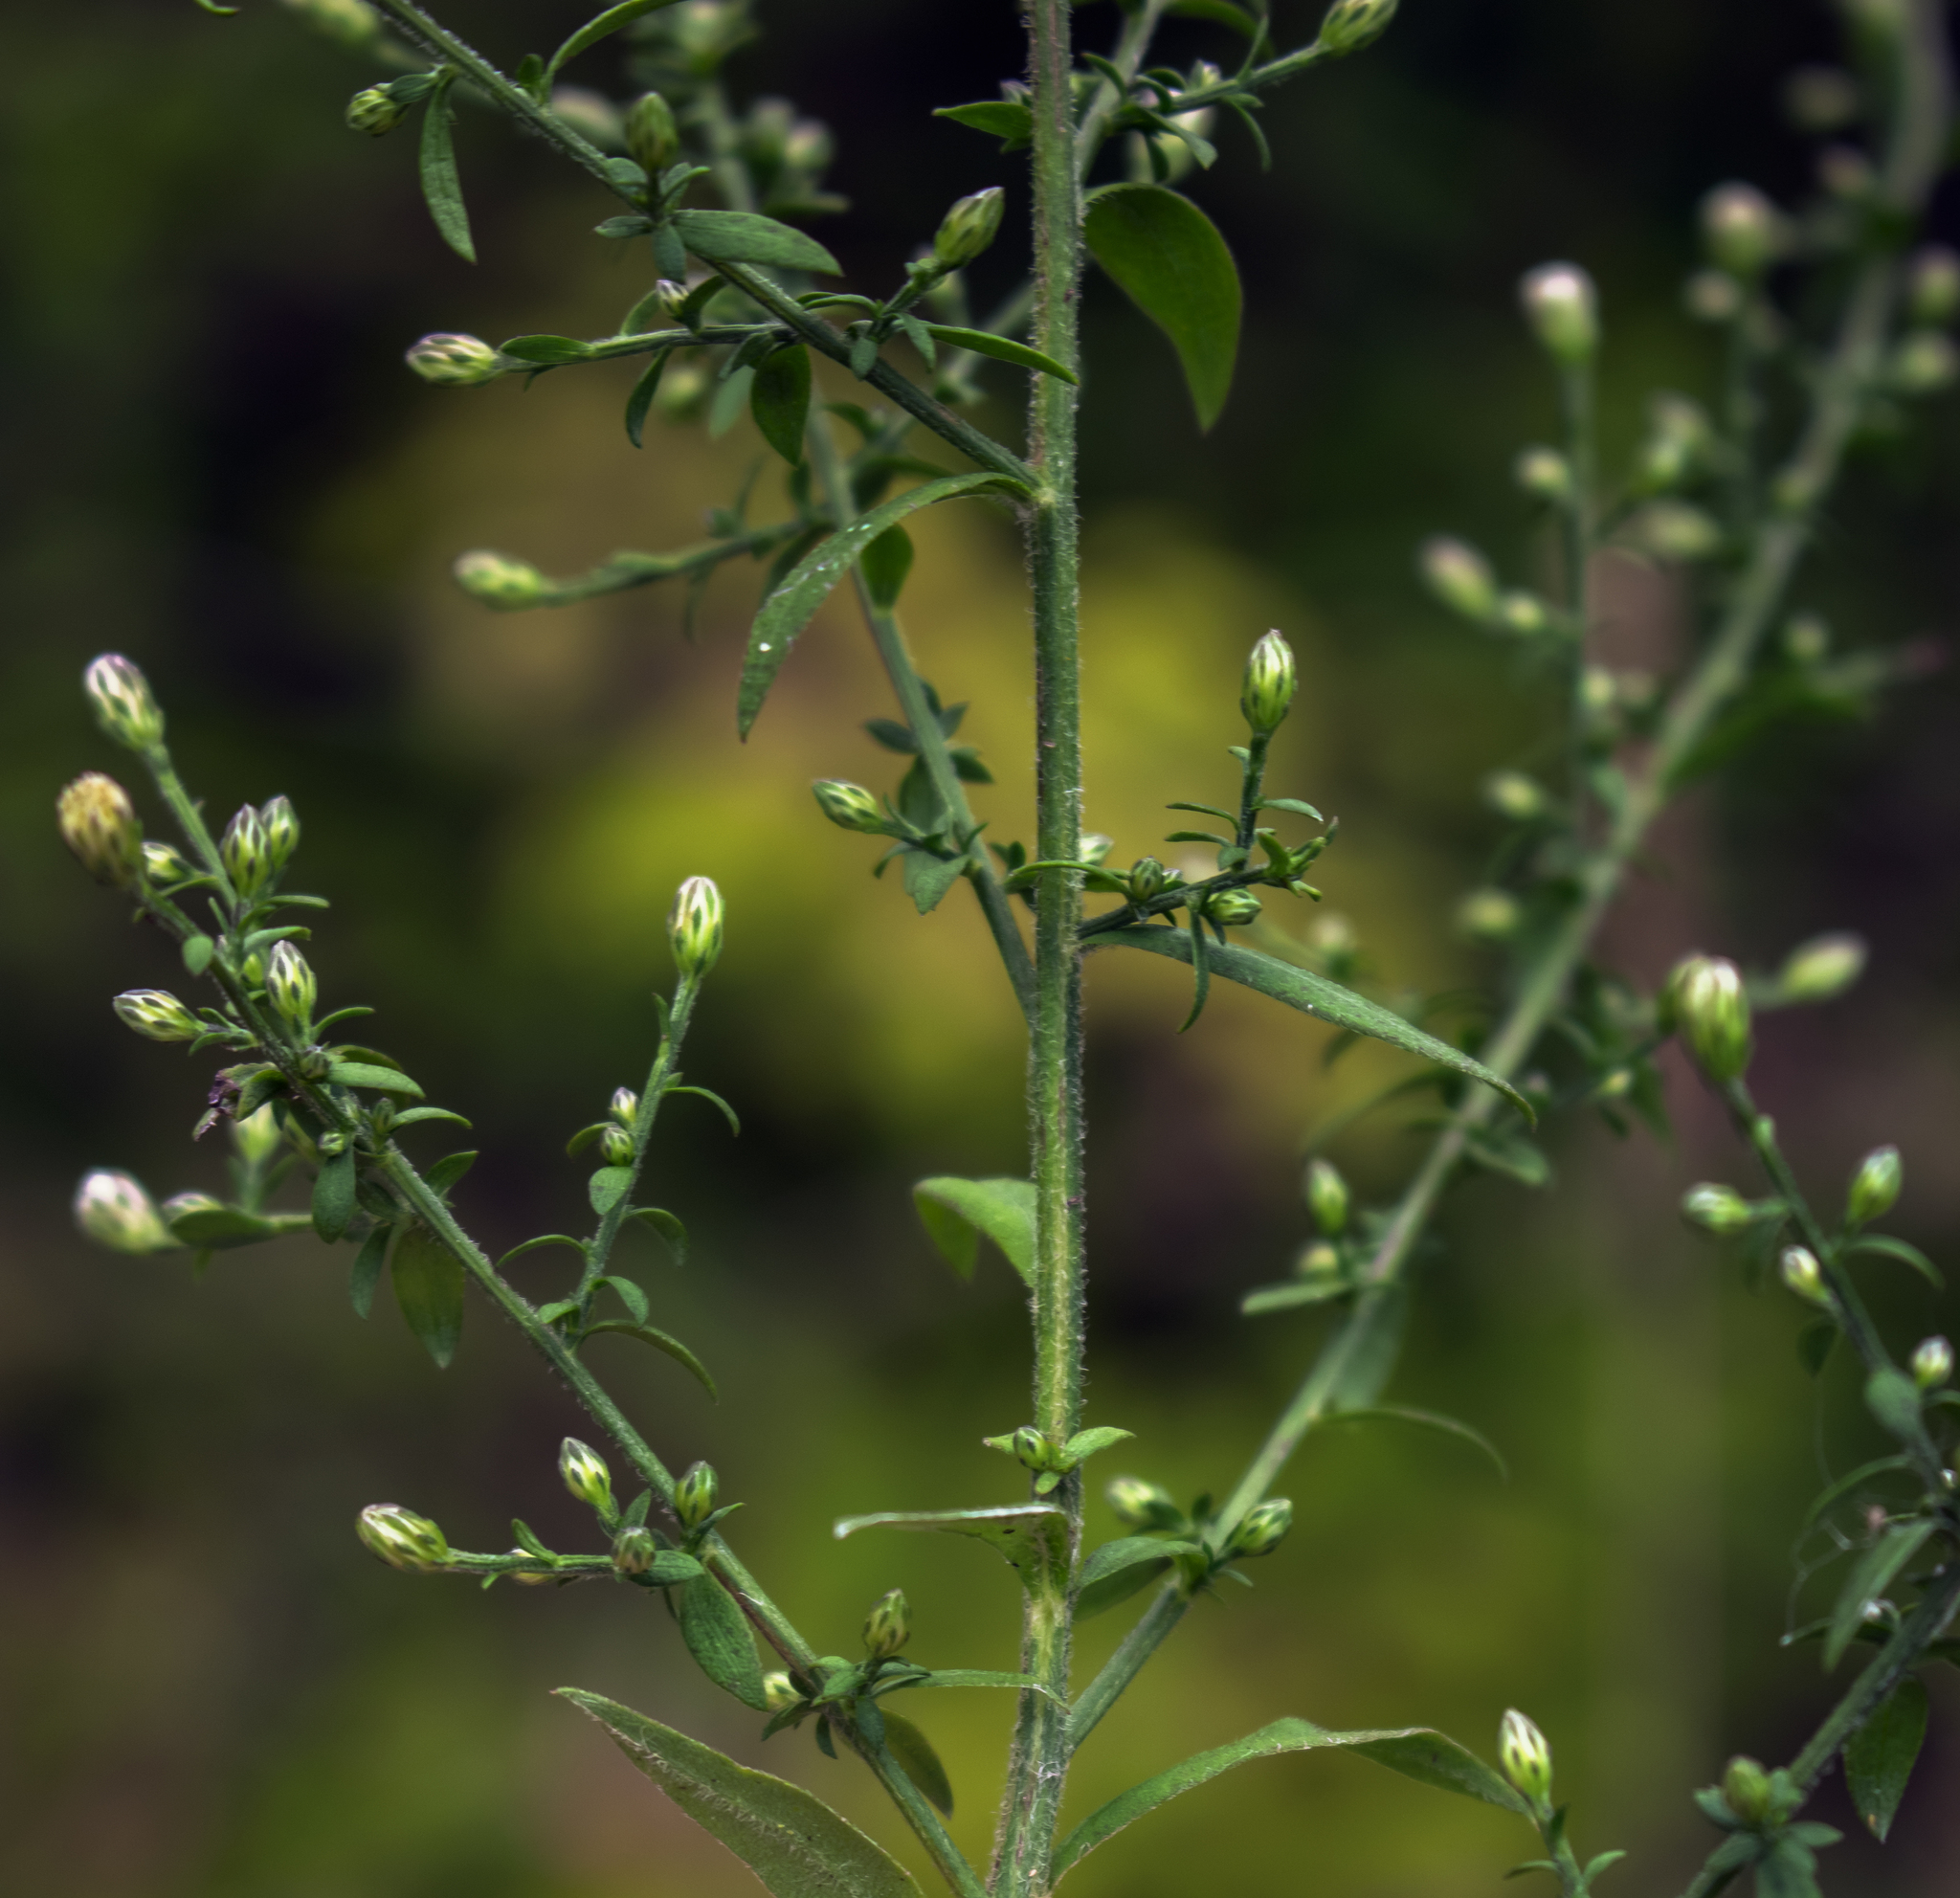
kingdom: Plantae
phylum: Tracheophyta
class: Magnoliopsida
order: Asterales
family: Asteraceae
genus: Symphyotrichum
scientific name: Symphyotrichum lateriflorum
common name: Calico aster
